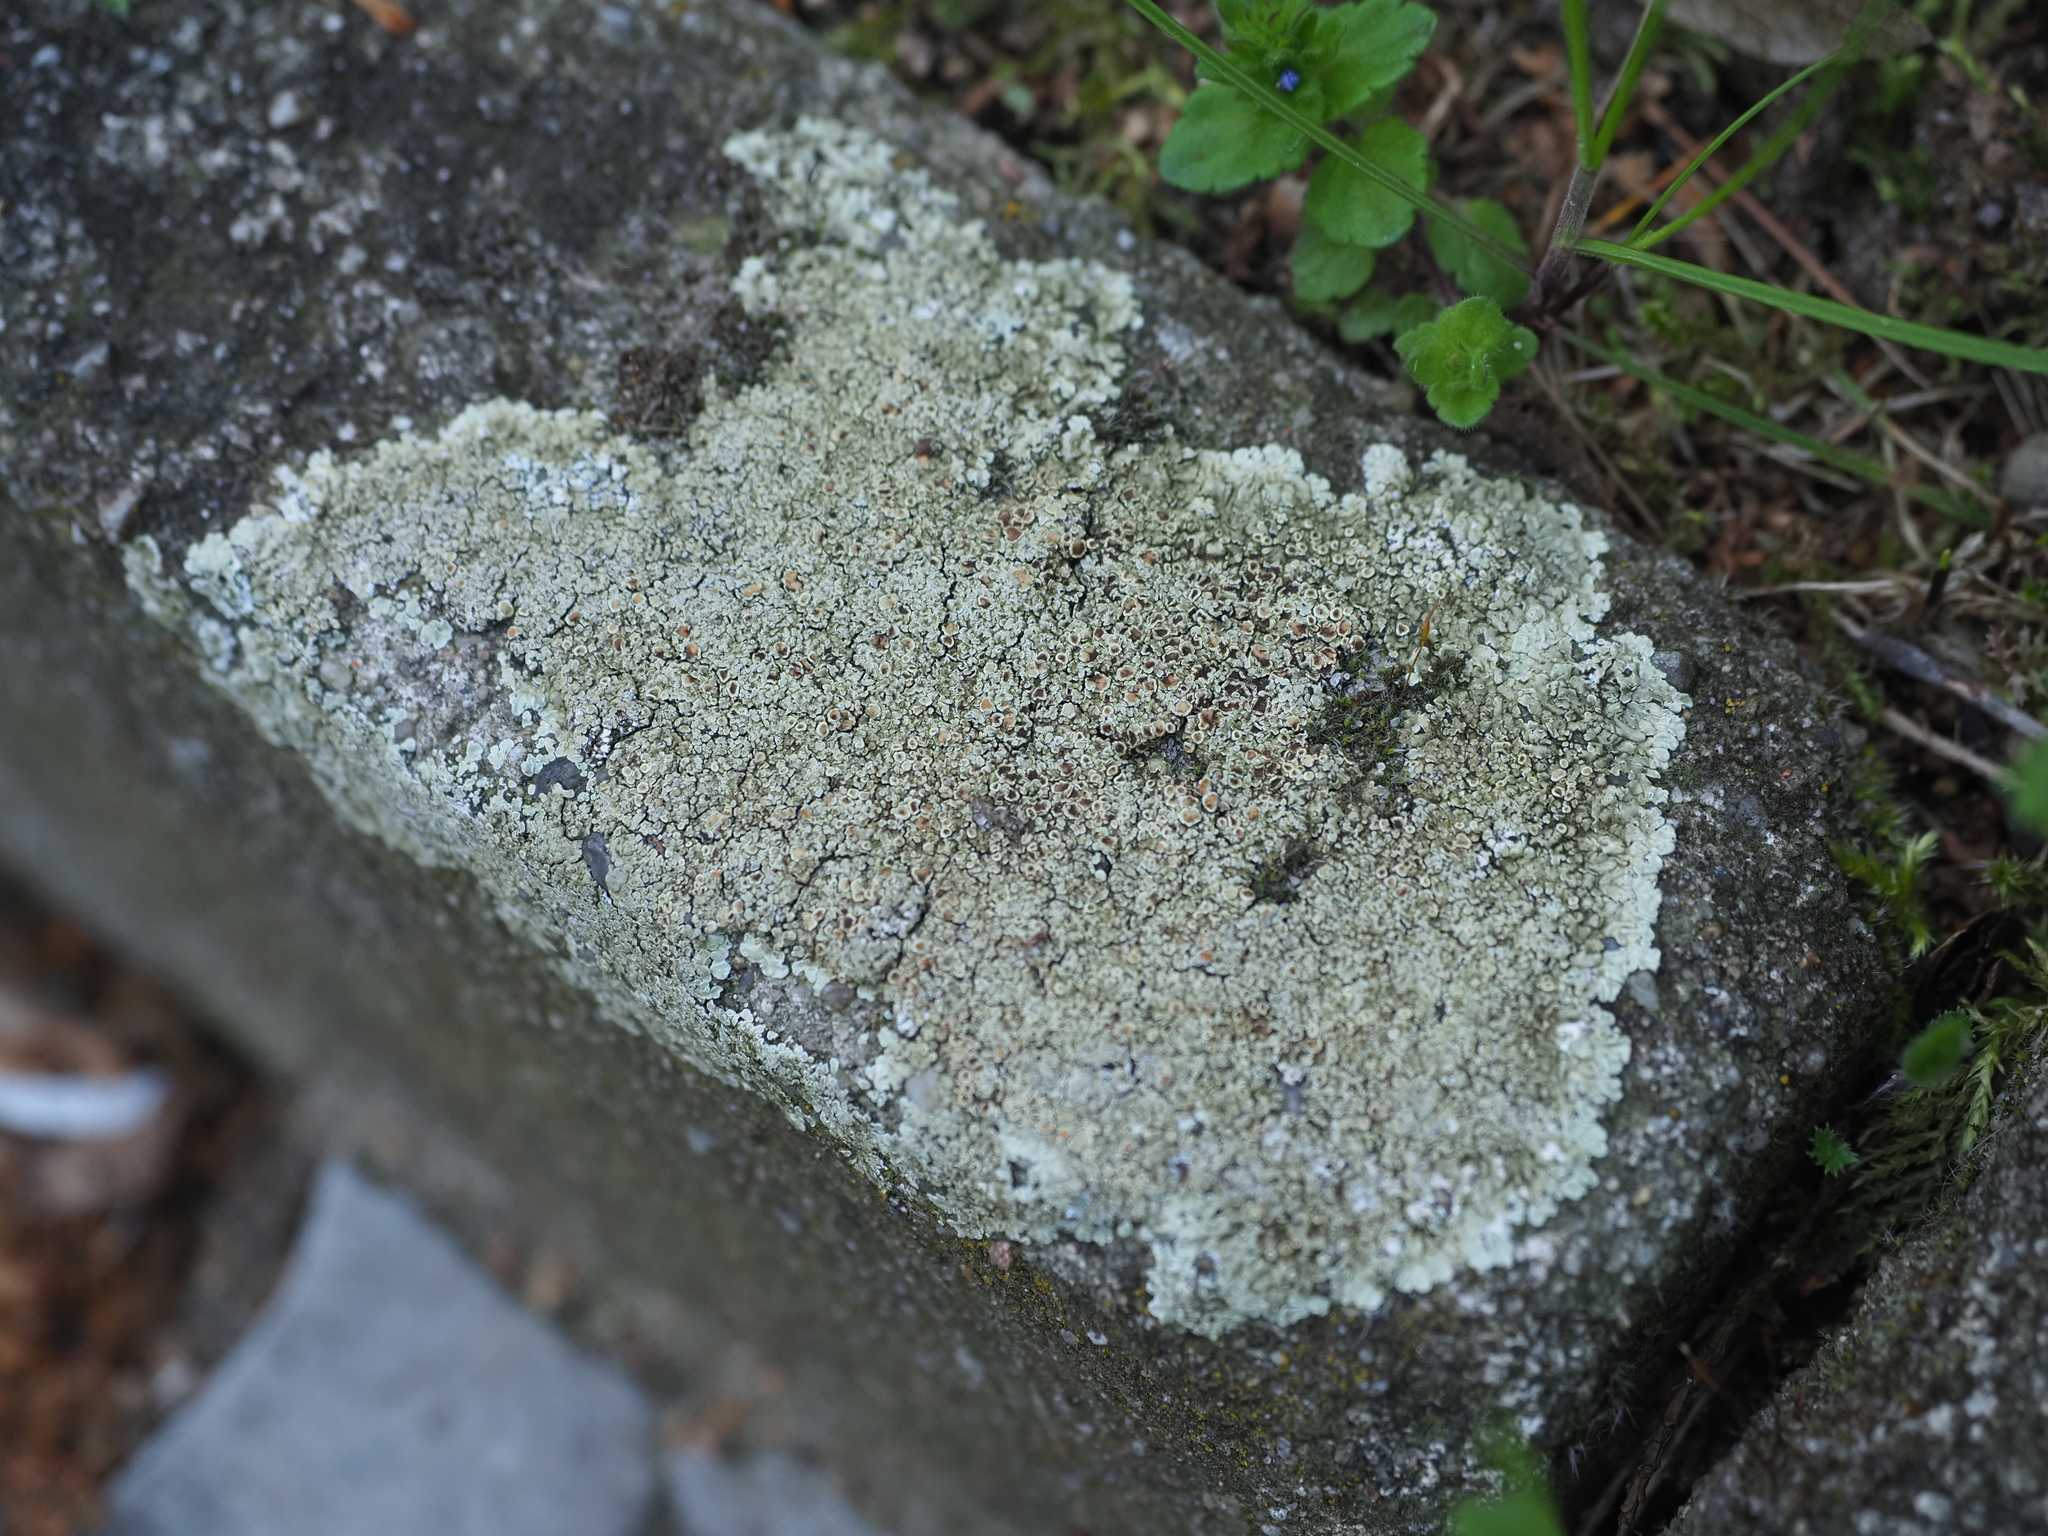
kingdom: Fungi
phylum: Ascomycota
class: Lecanoromycetes
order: Lecanorales
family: Lecanoraceae
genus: Protoparmeliopsis
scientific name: Protoparmeliopsis muralis
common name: Stonewall rim lichen
